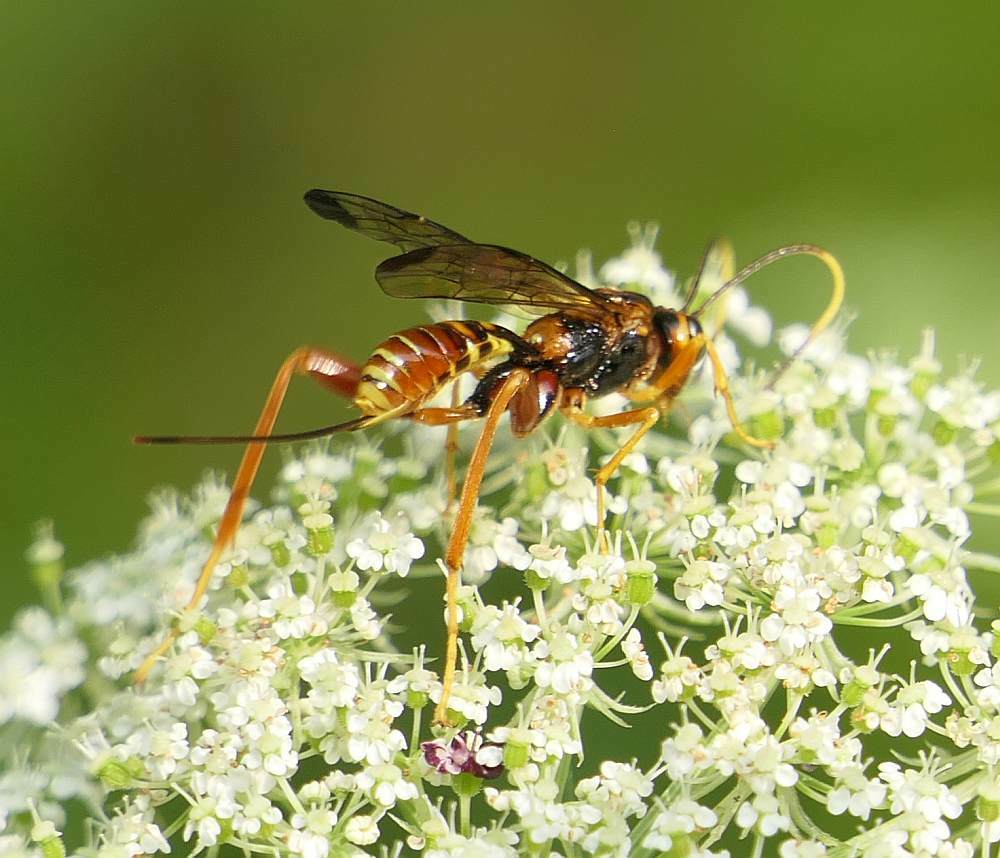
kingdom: Animalia
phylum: Arthropoda
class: Insecta
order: Hymenoptera
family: Ichneumonidae
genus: Spilopteron
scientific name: Spilopteron vicinum
